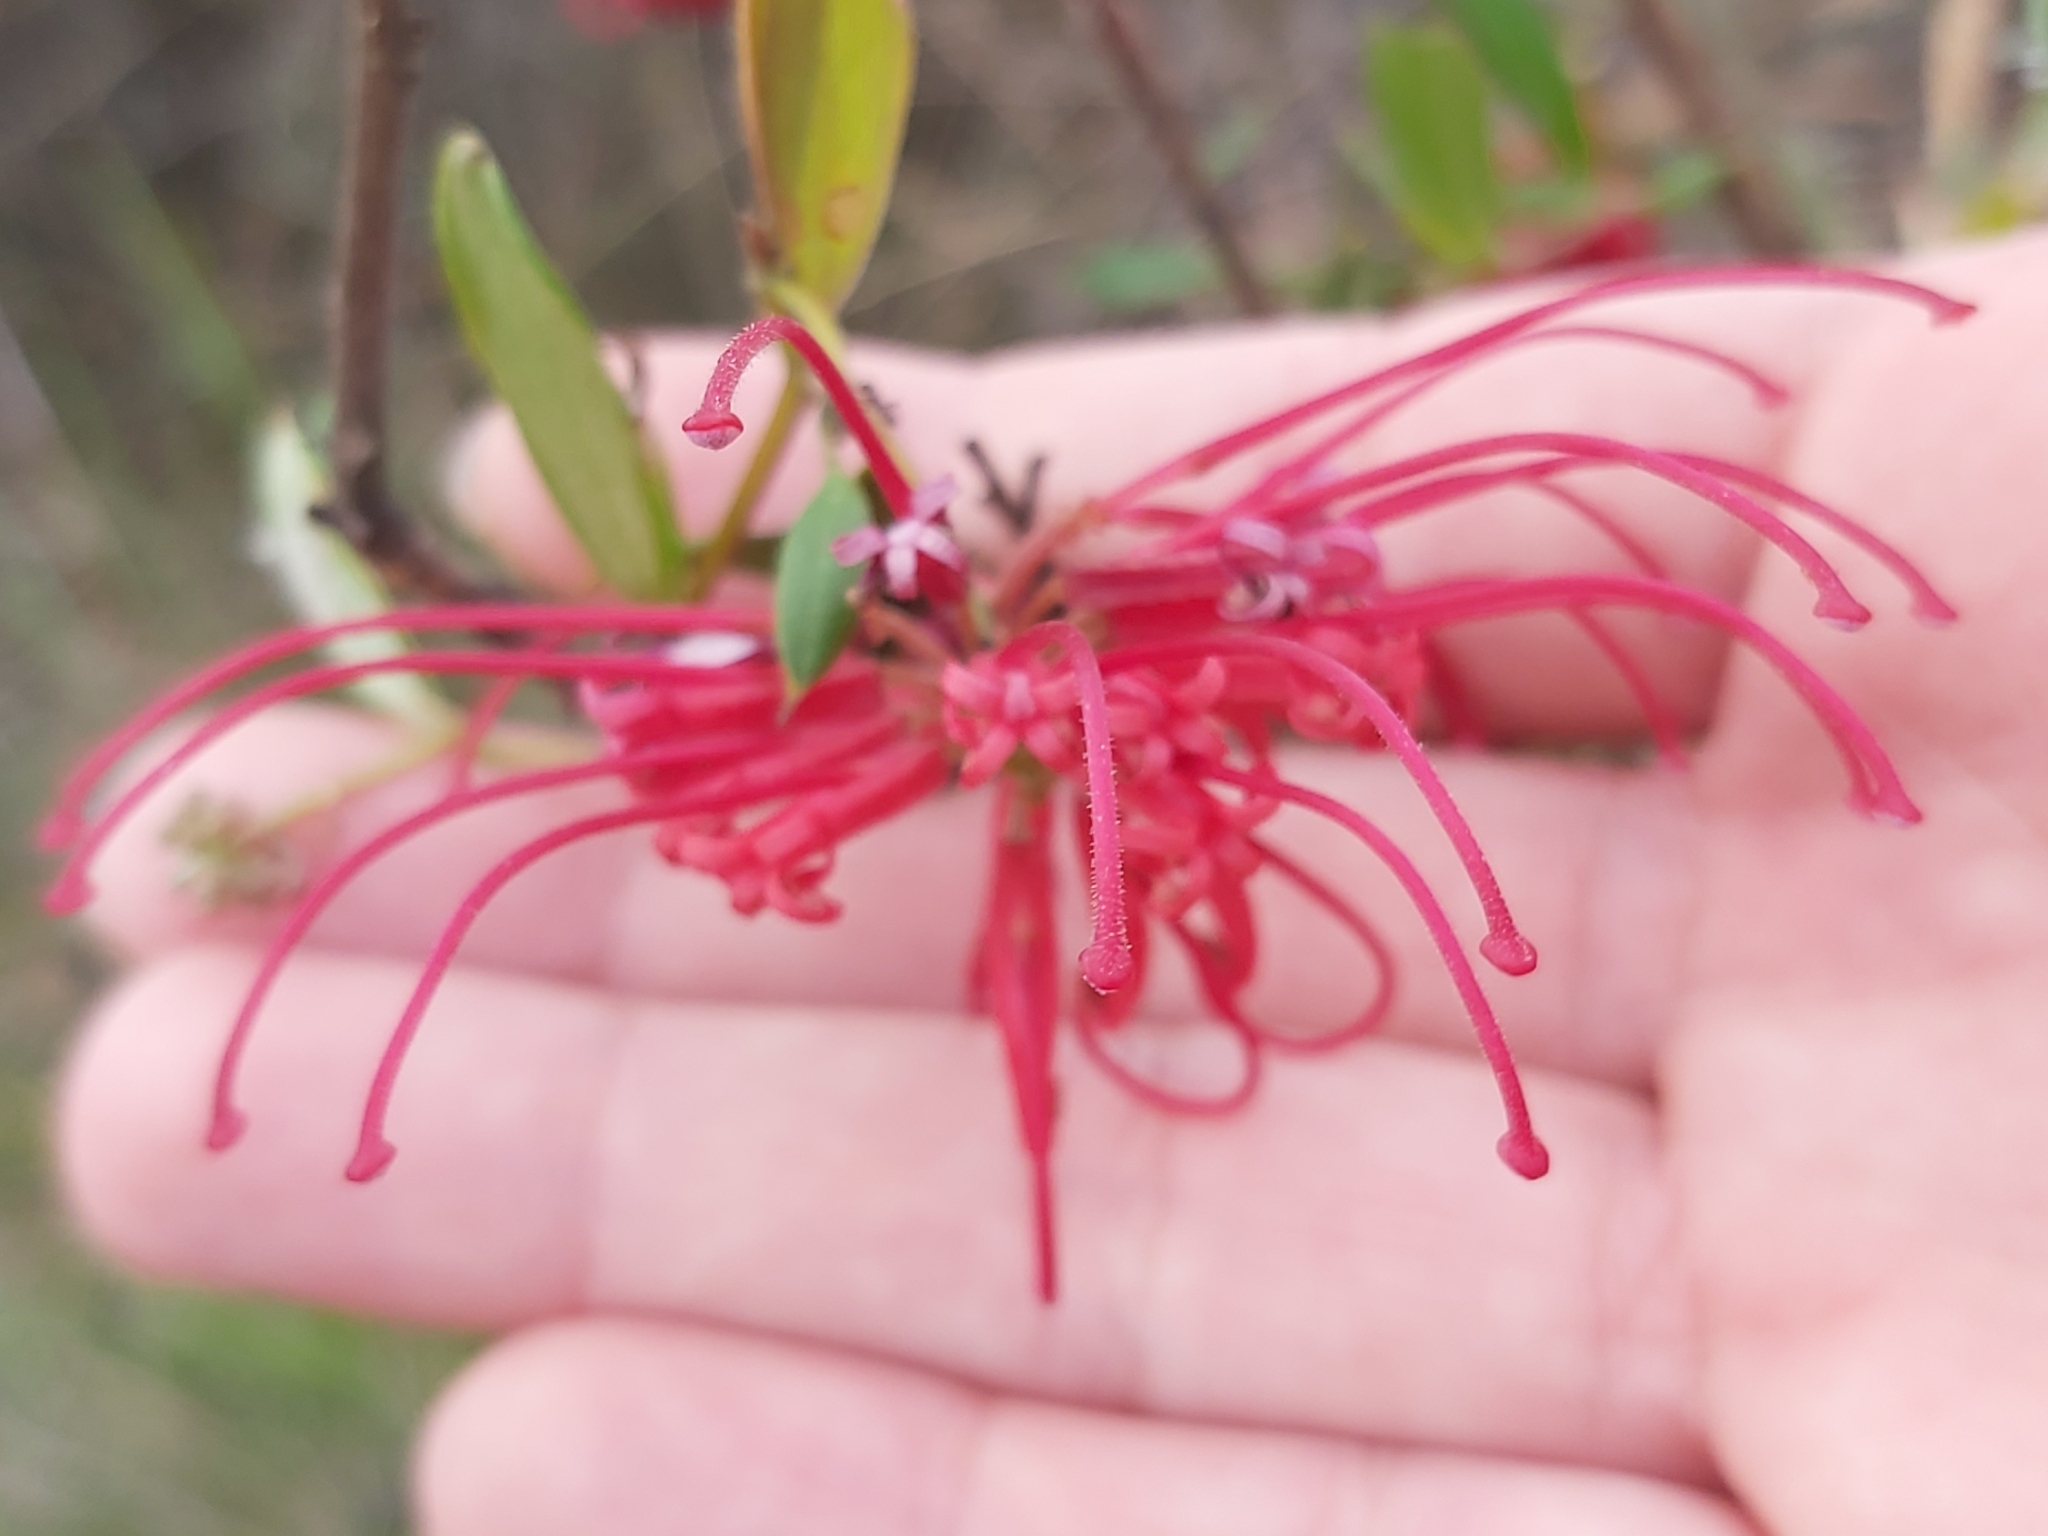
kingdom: Plantae
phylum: Tracheophyta
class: Magnoliopsida
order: Proteales
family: Proteaceae
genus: Grevillea
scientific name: Grevillea speciosa
